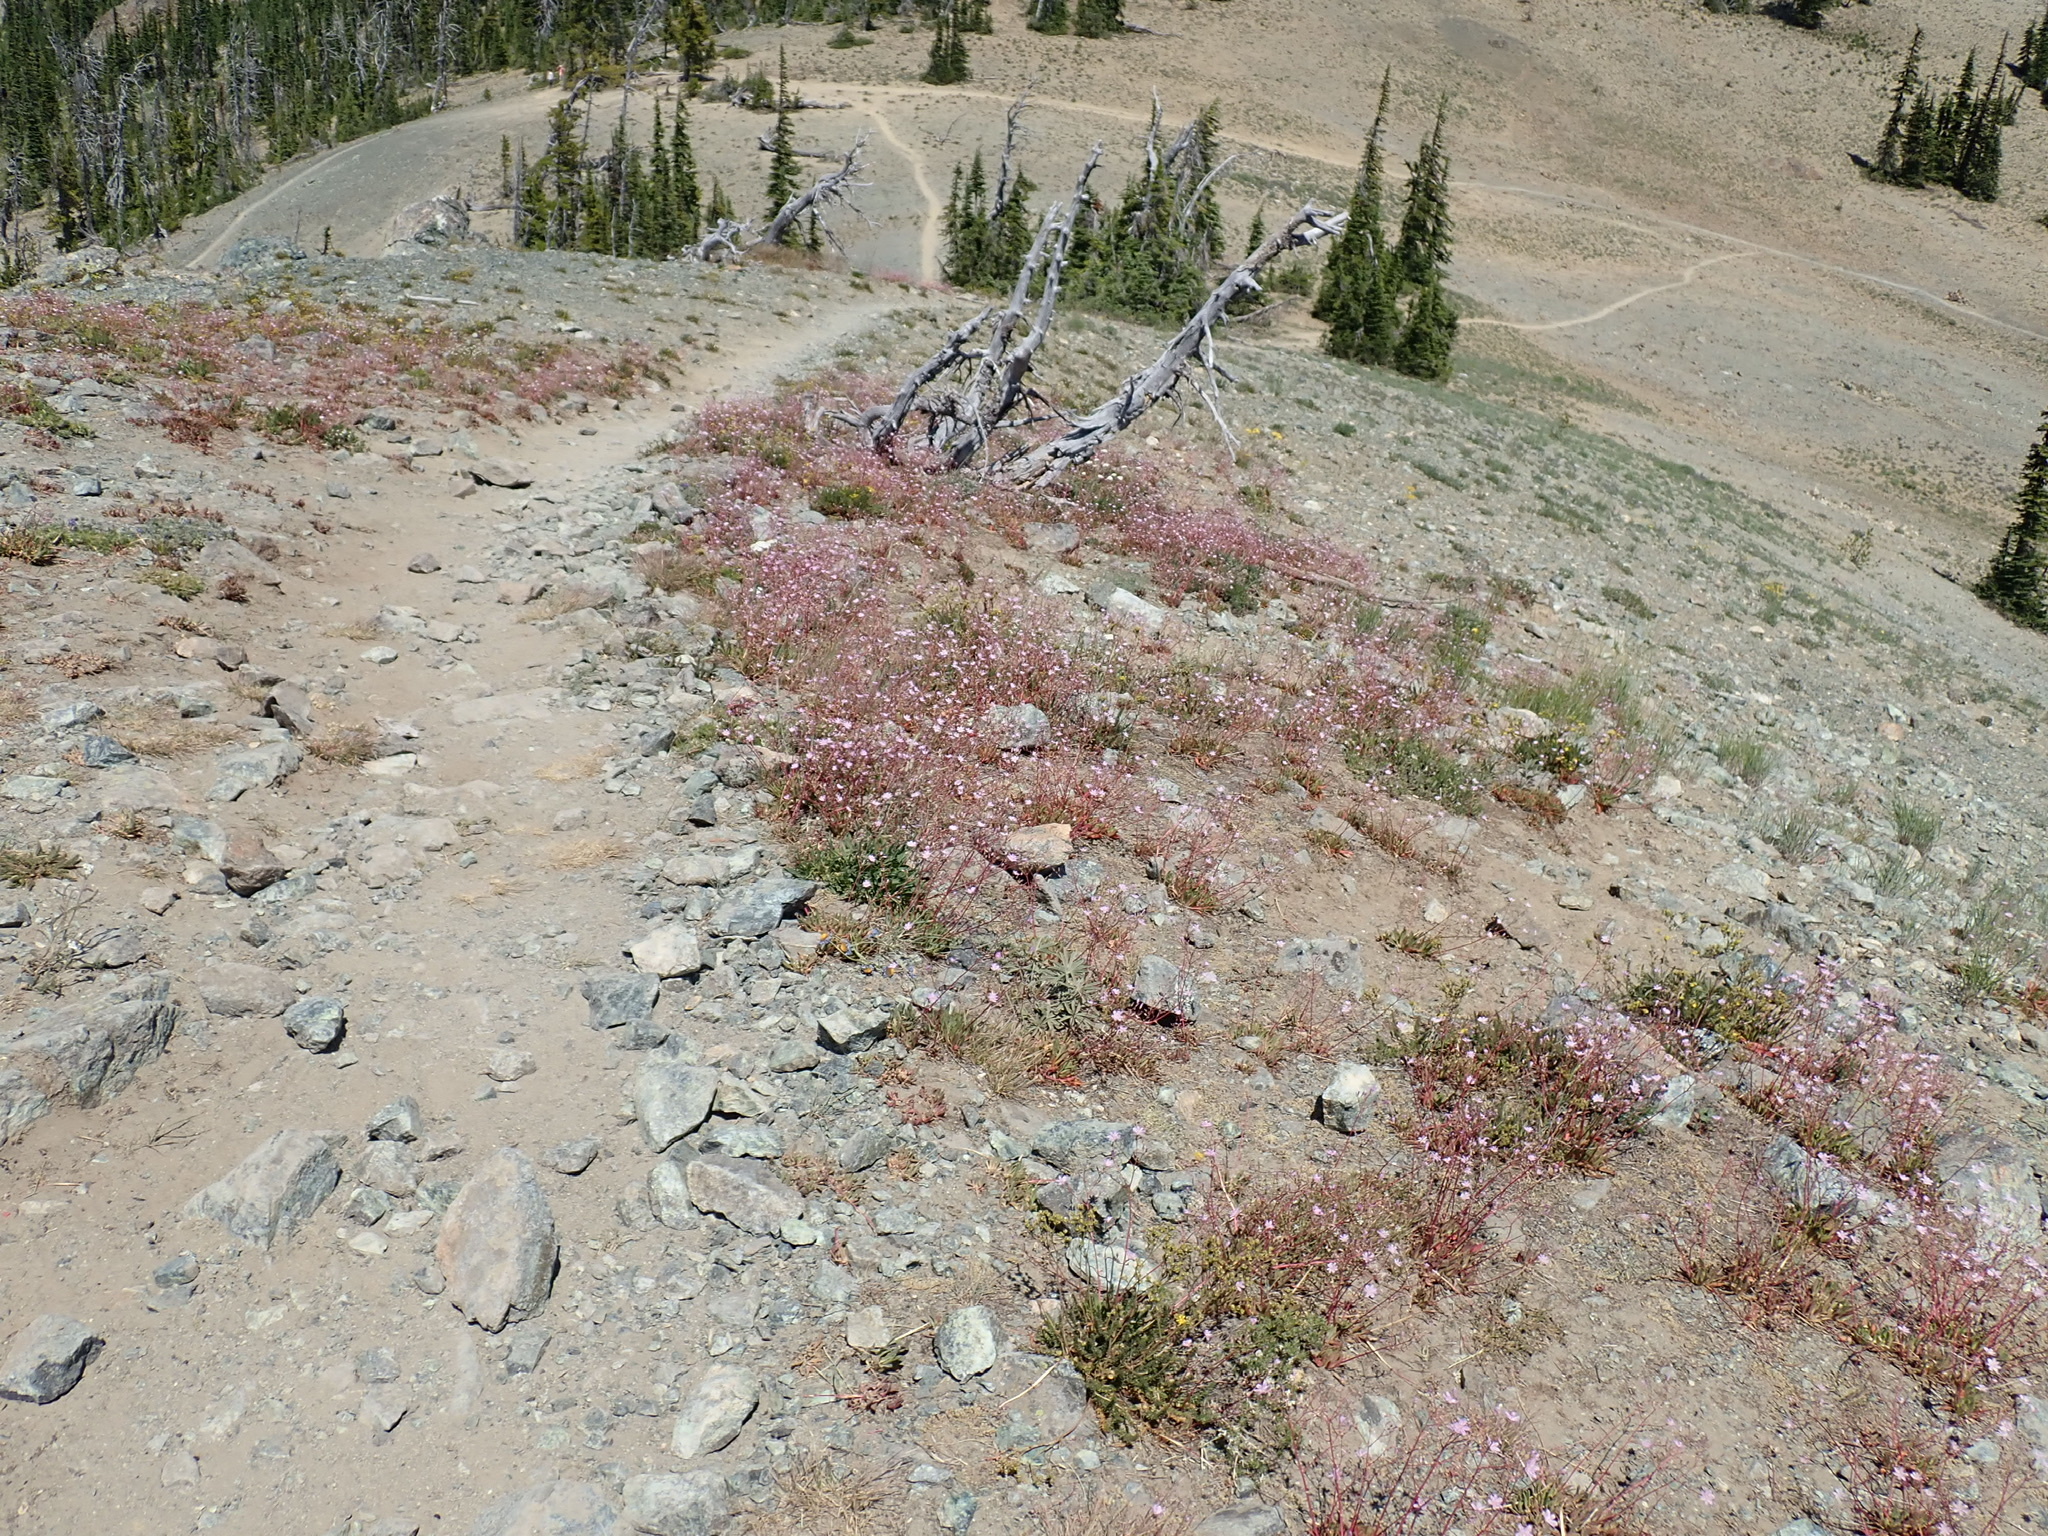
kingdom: Plantae
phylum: Tracheophyta
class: Magnoliopsida
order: Caryophyllales
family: Montiaceae
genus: Lewisia
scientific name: Lewisia columbiana
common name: Columbia lewisia
